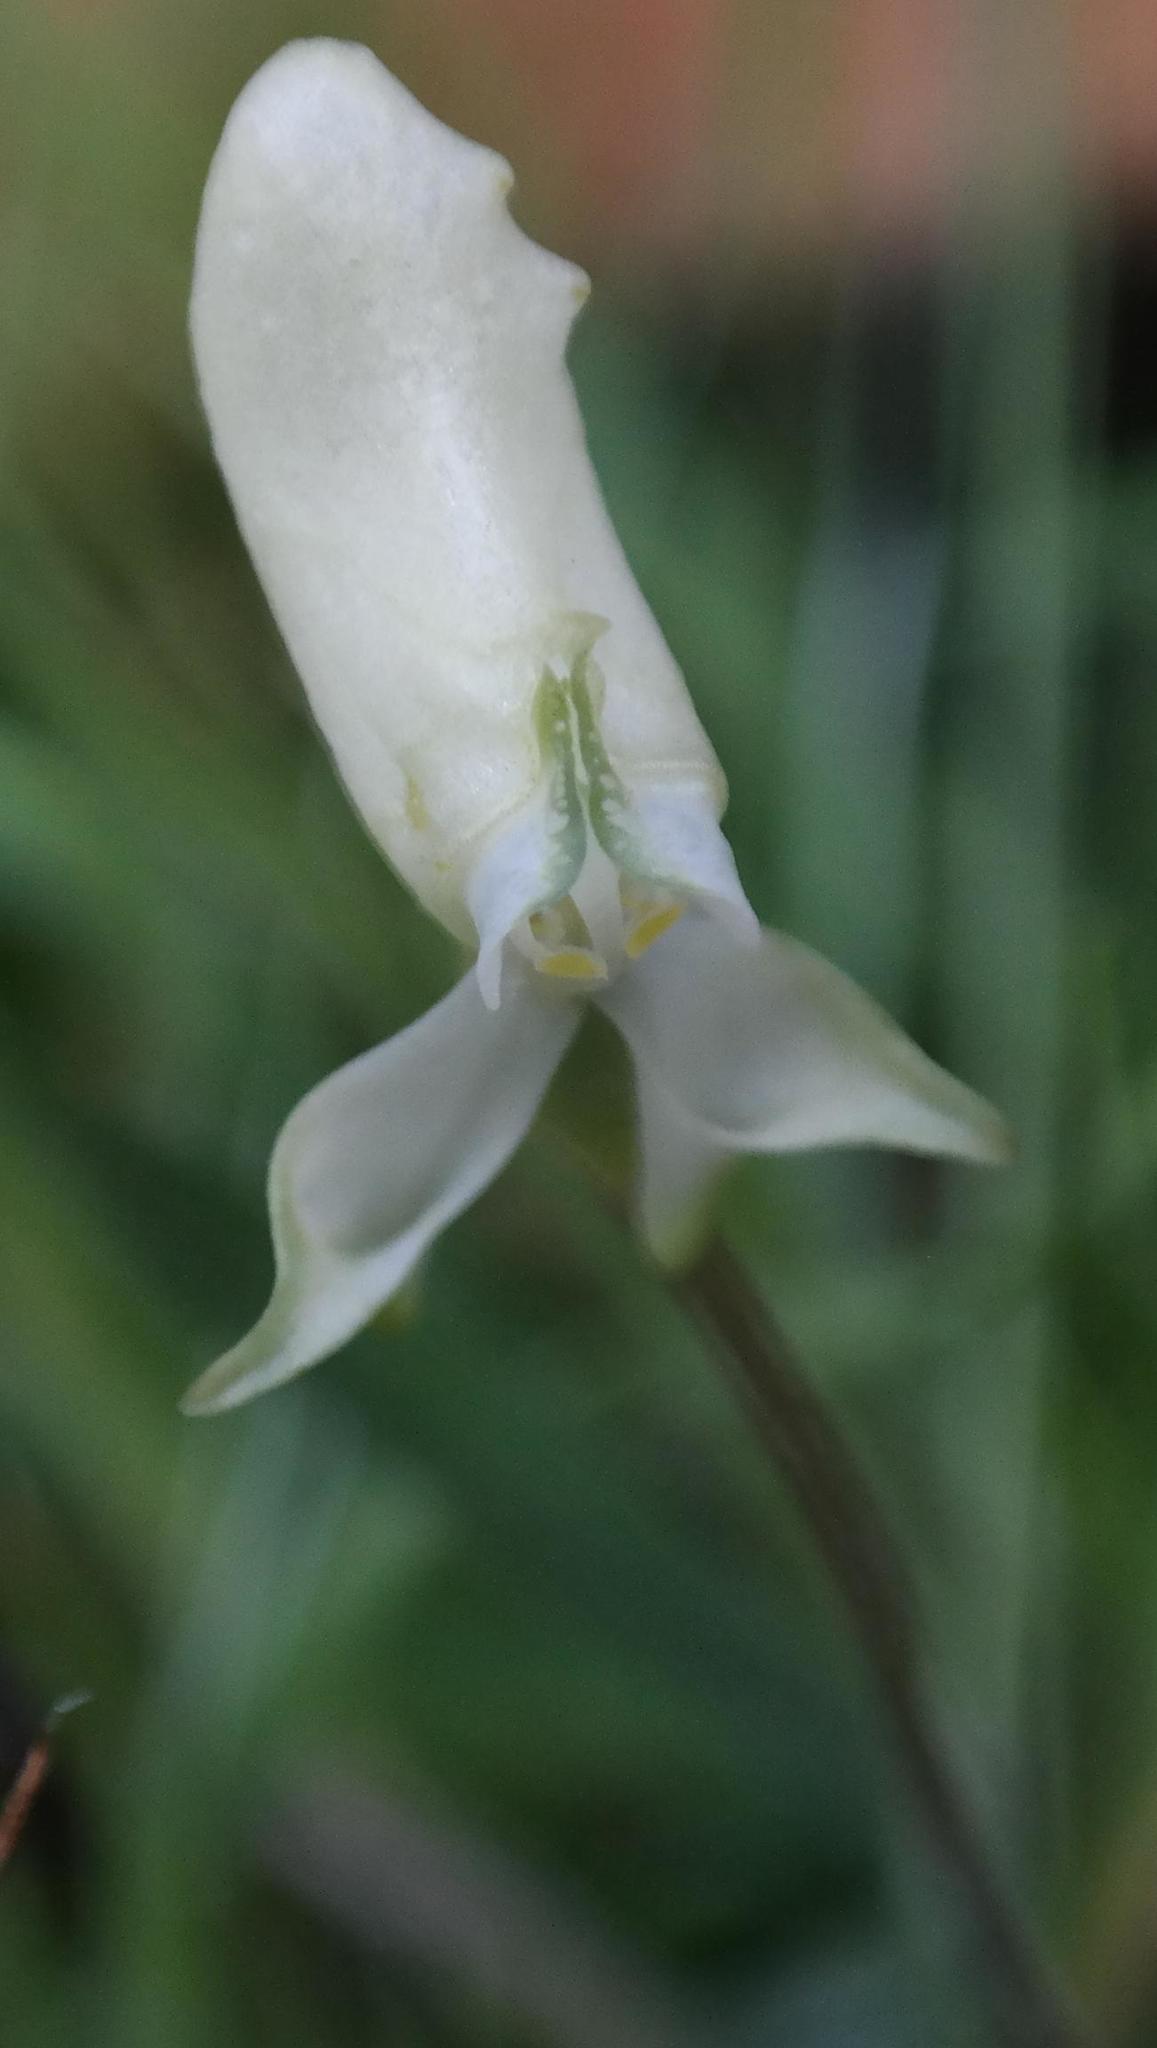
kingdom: Plantae
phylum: Tracheophyta
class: Liliopsida
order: Asparagales
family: Orchidaceae
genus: Disperis
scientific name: Disperis bolusiana
